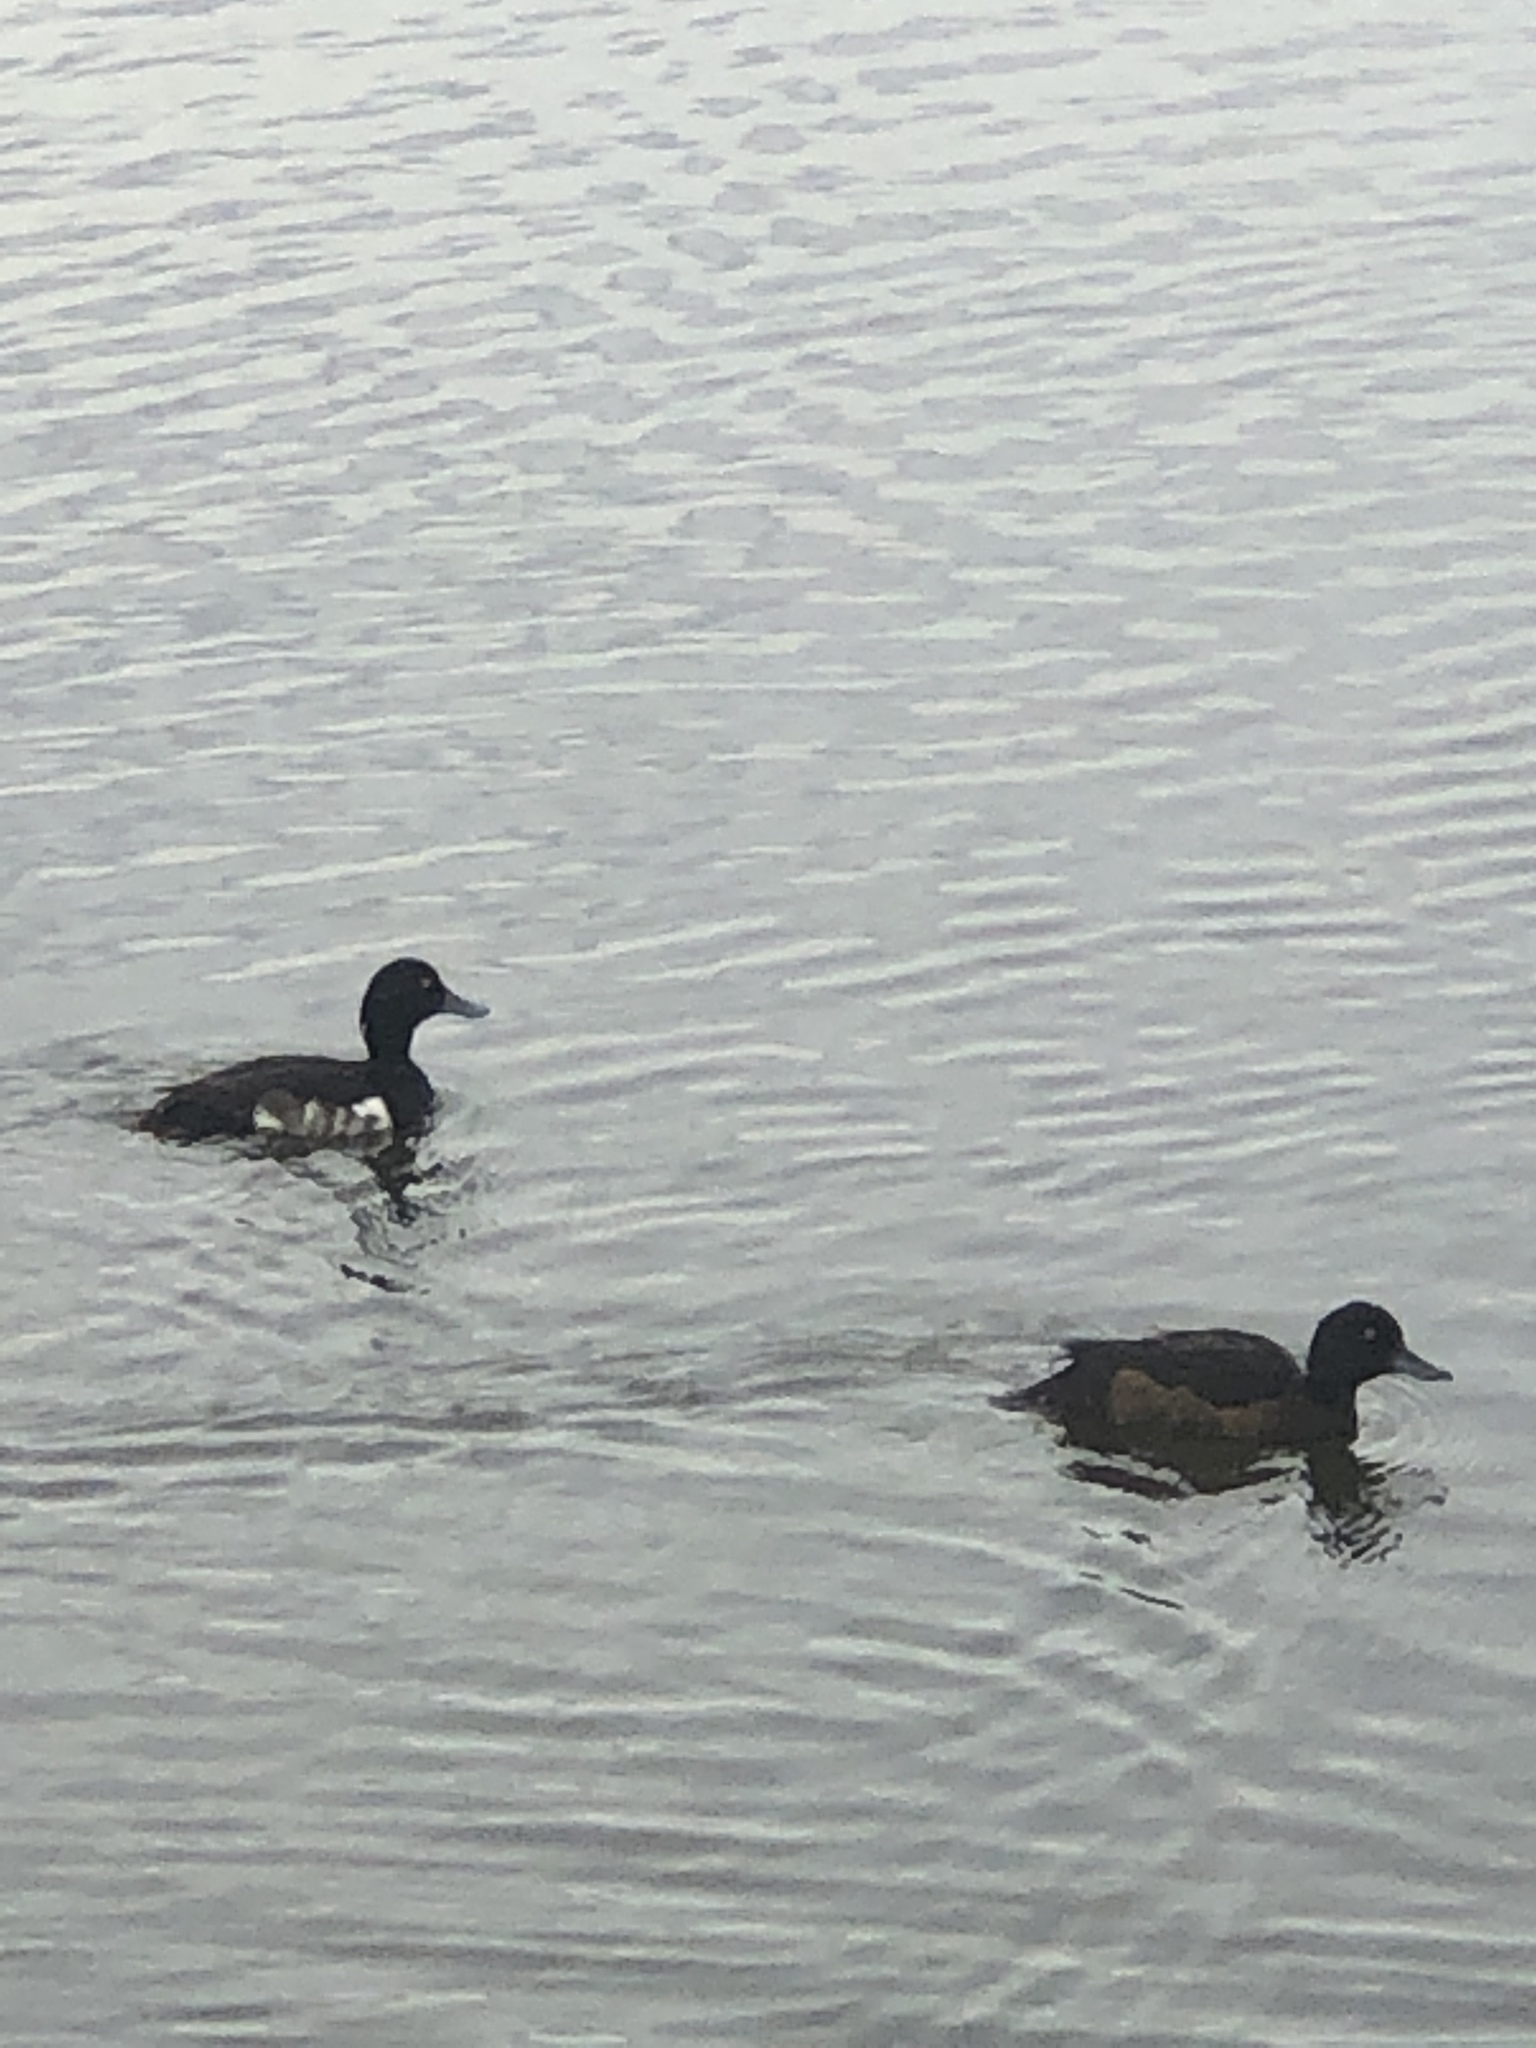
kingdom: Animalia
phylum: Chordata
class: Aves
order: Anseriformes
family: Anatidae
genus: Aythya
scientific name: Aythya fuligula
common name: Tufted duck
